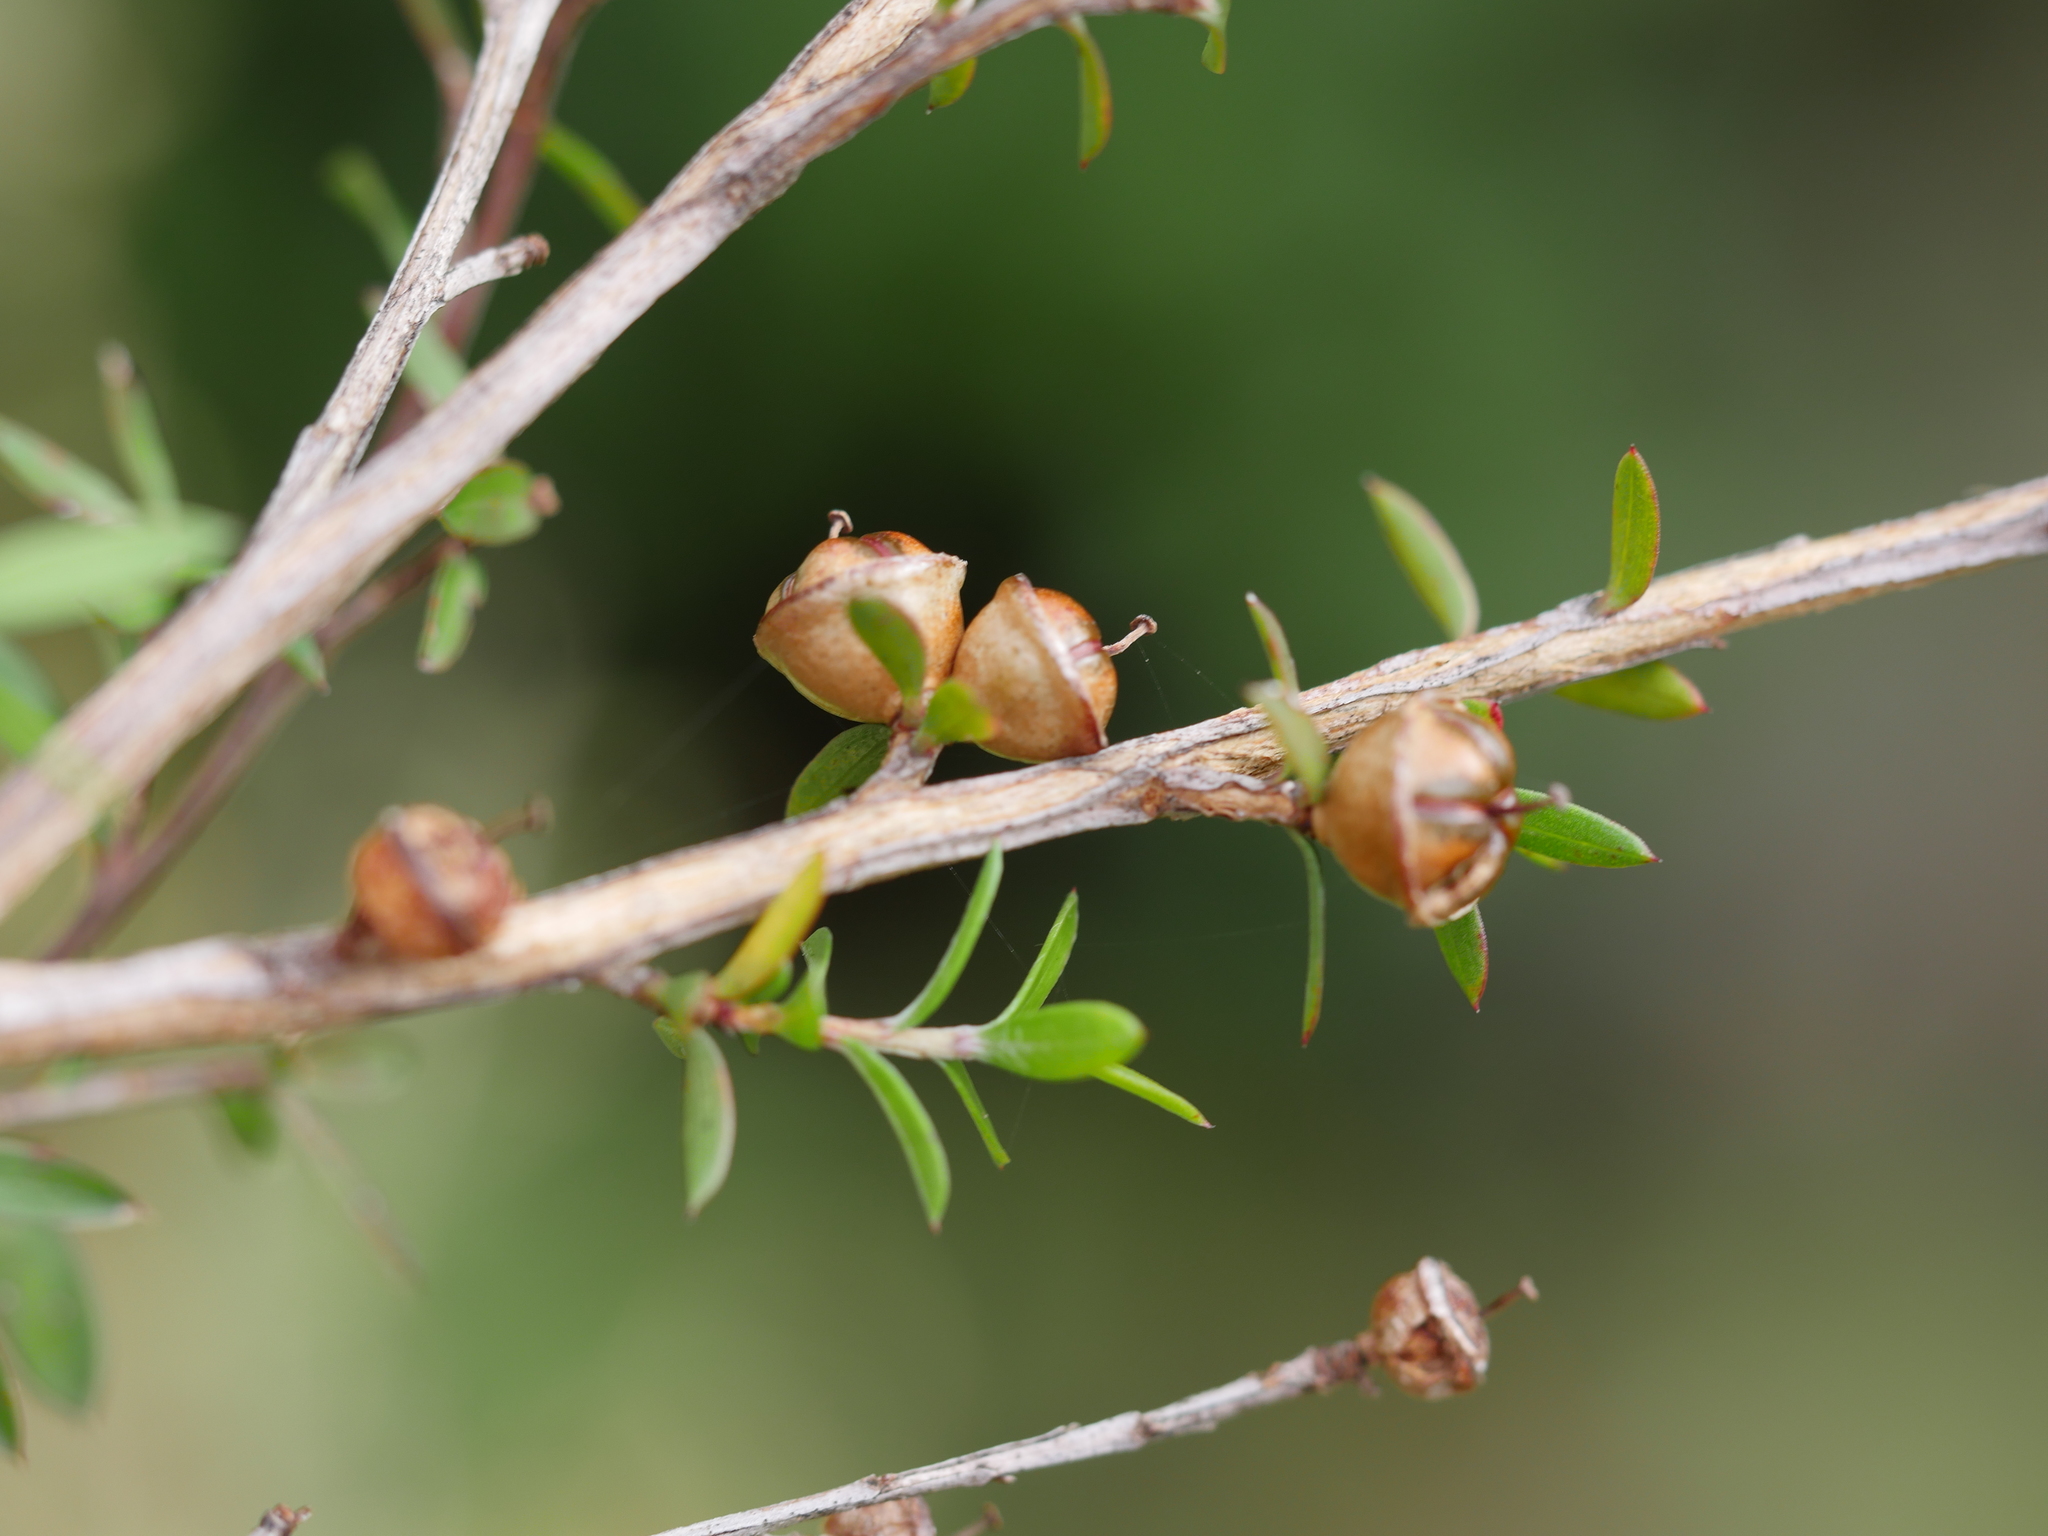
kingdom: Plantae
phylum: Tracheophyta
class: Magnoliopsida
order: Myrtales
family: Myrtaceae
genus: Leptospermum
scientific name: Leptospermum scoparium
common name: Broom tea-tree
